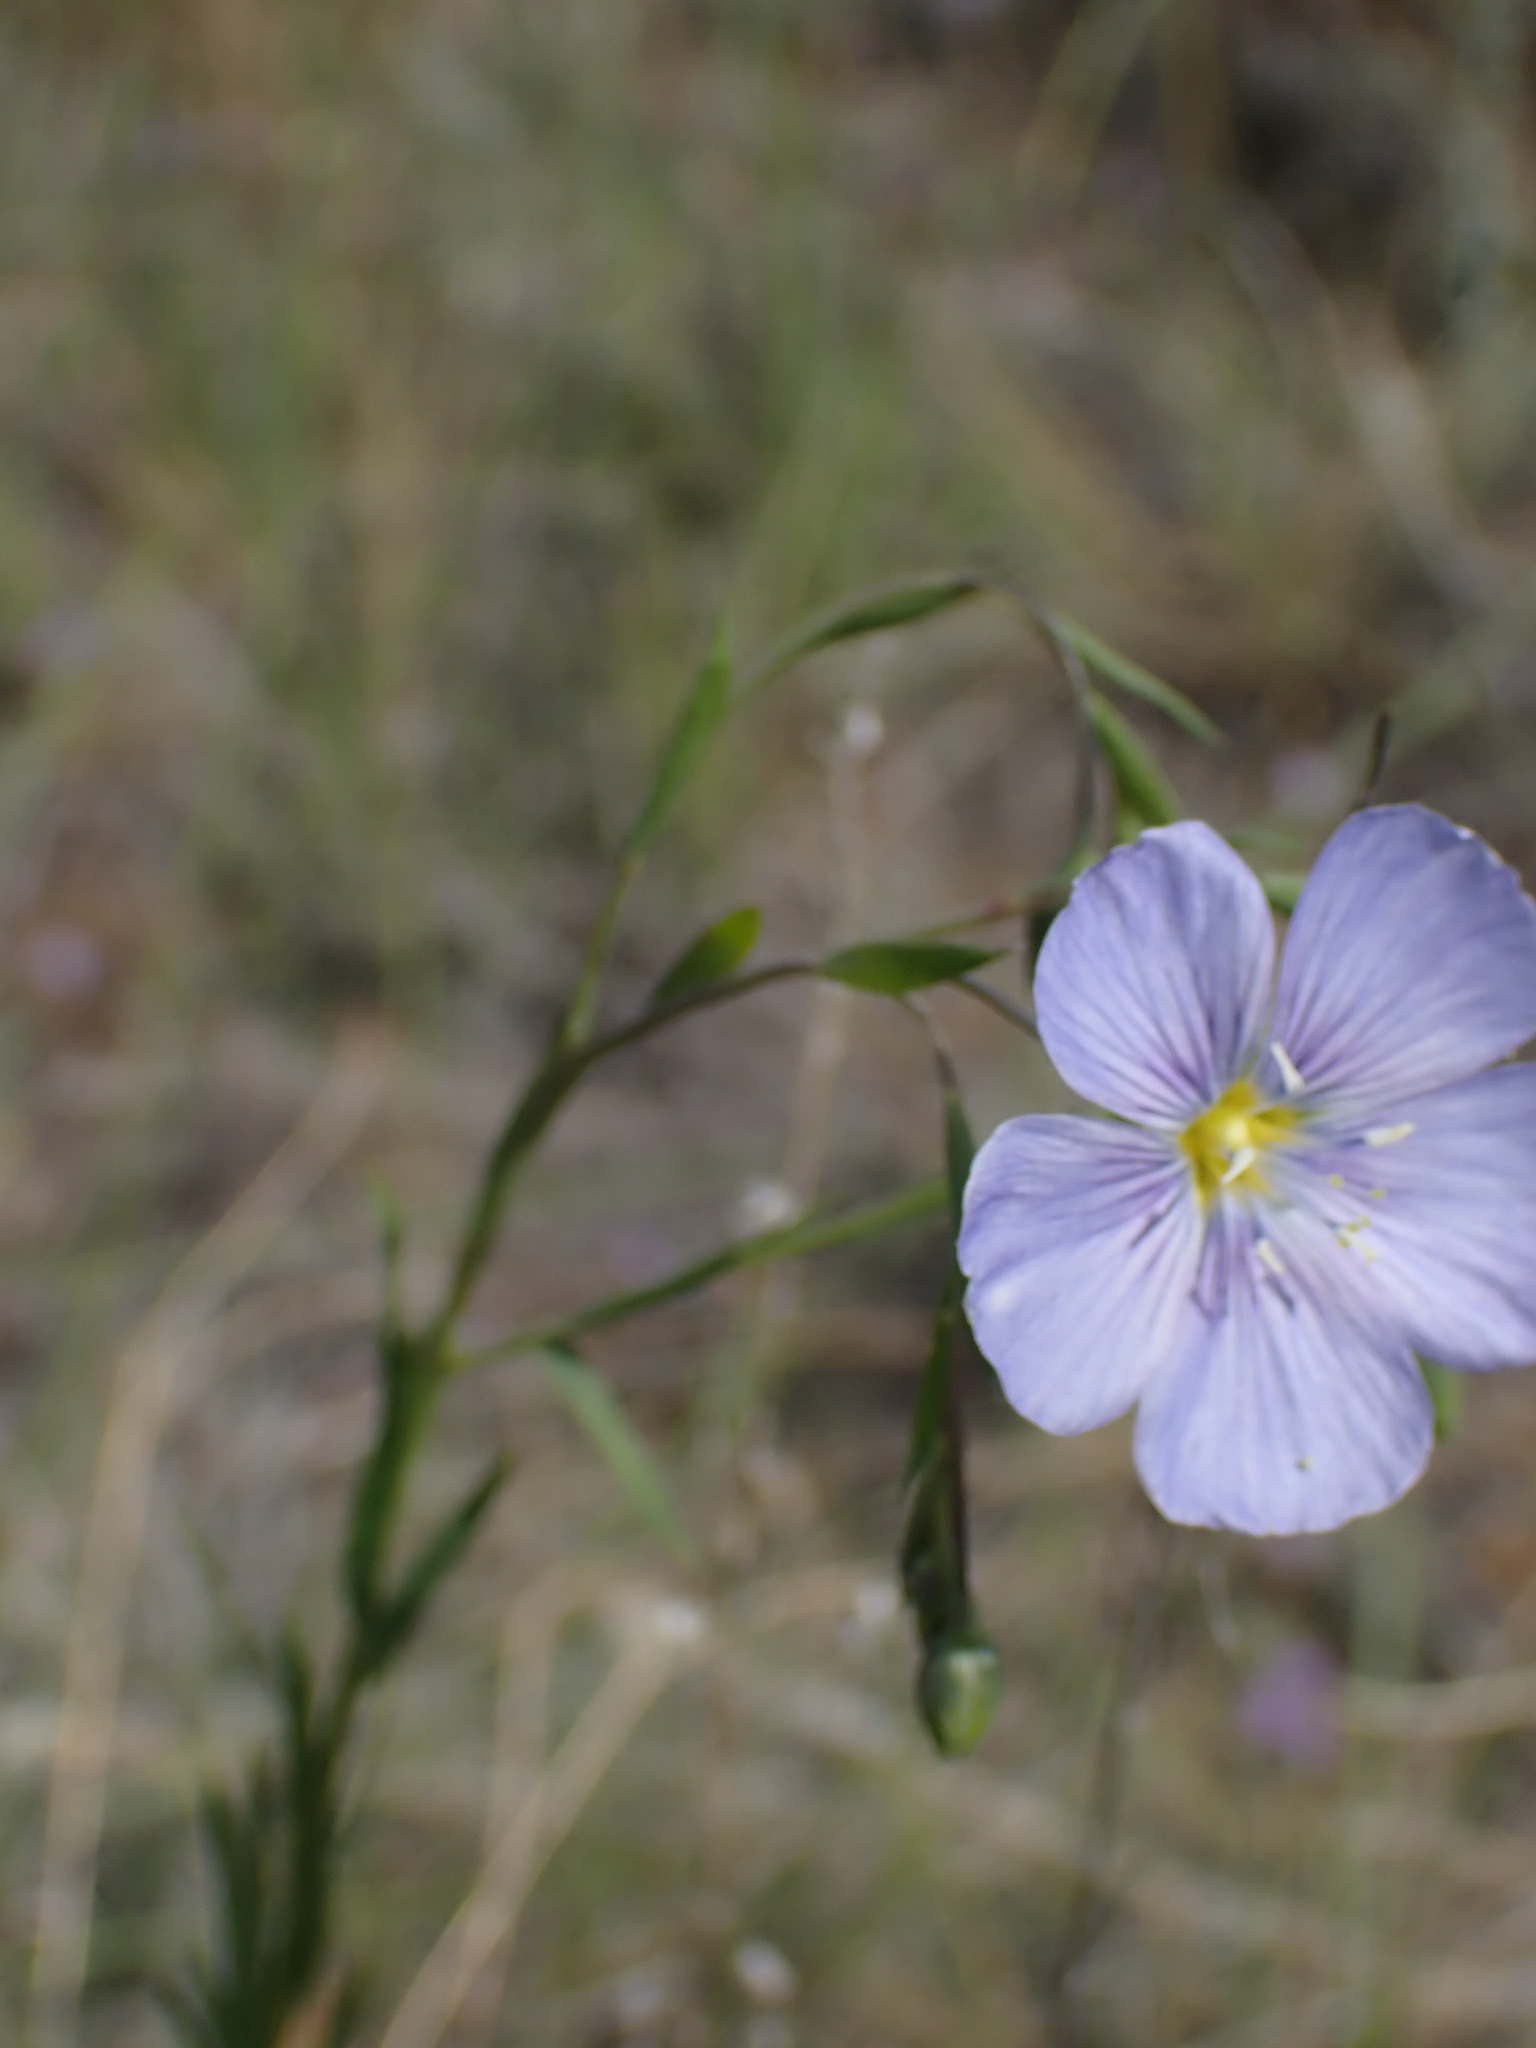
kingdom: Plantae
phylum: Tracheophyta
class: Magnoliopsida
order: Malpighiales
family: Linaceae
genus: Linum
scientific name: Linum lewisii
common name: Prairie flax
